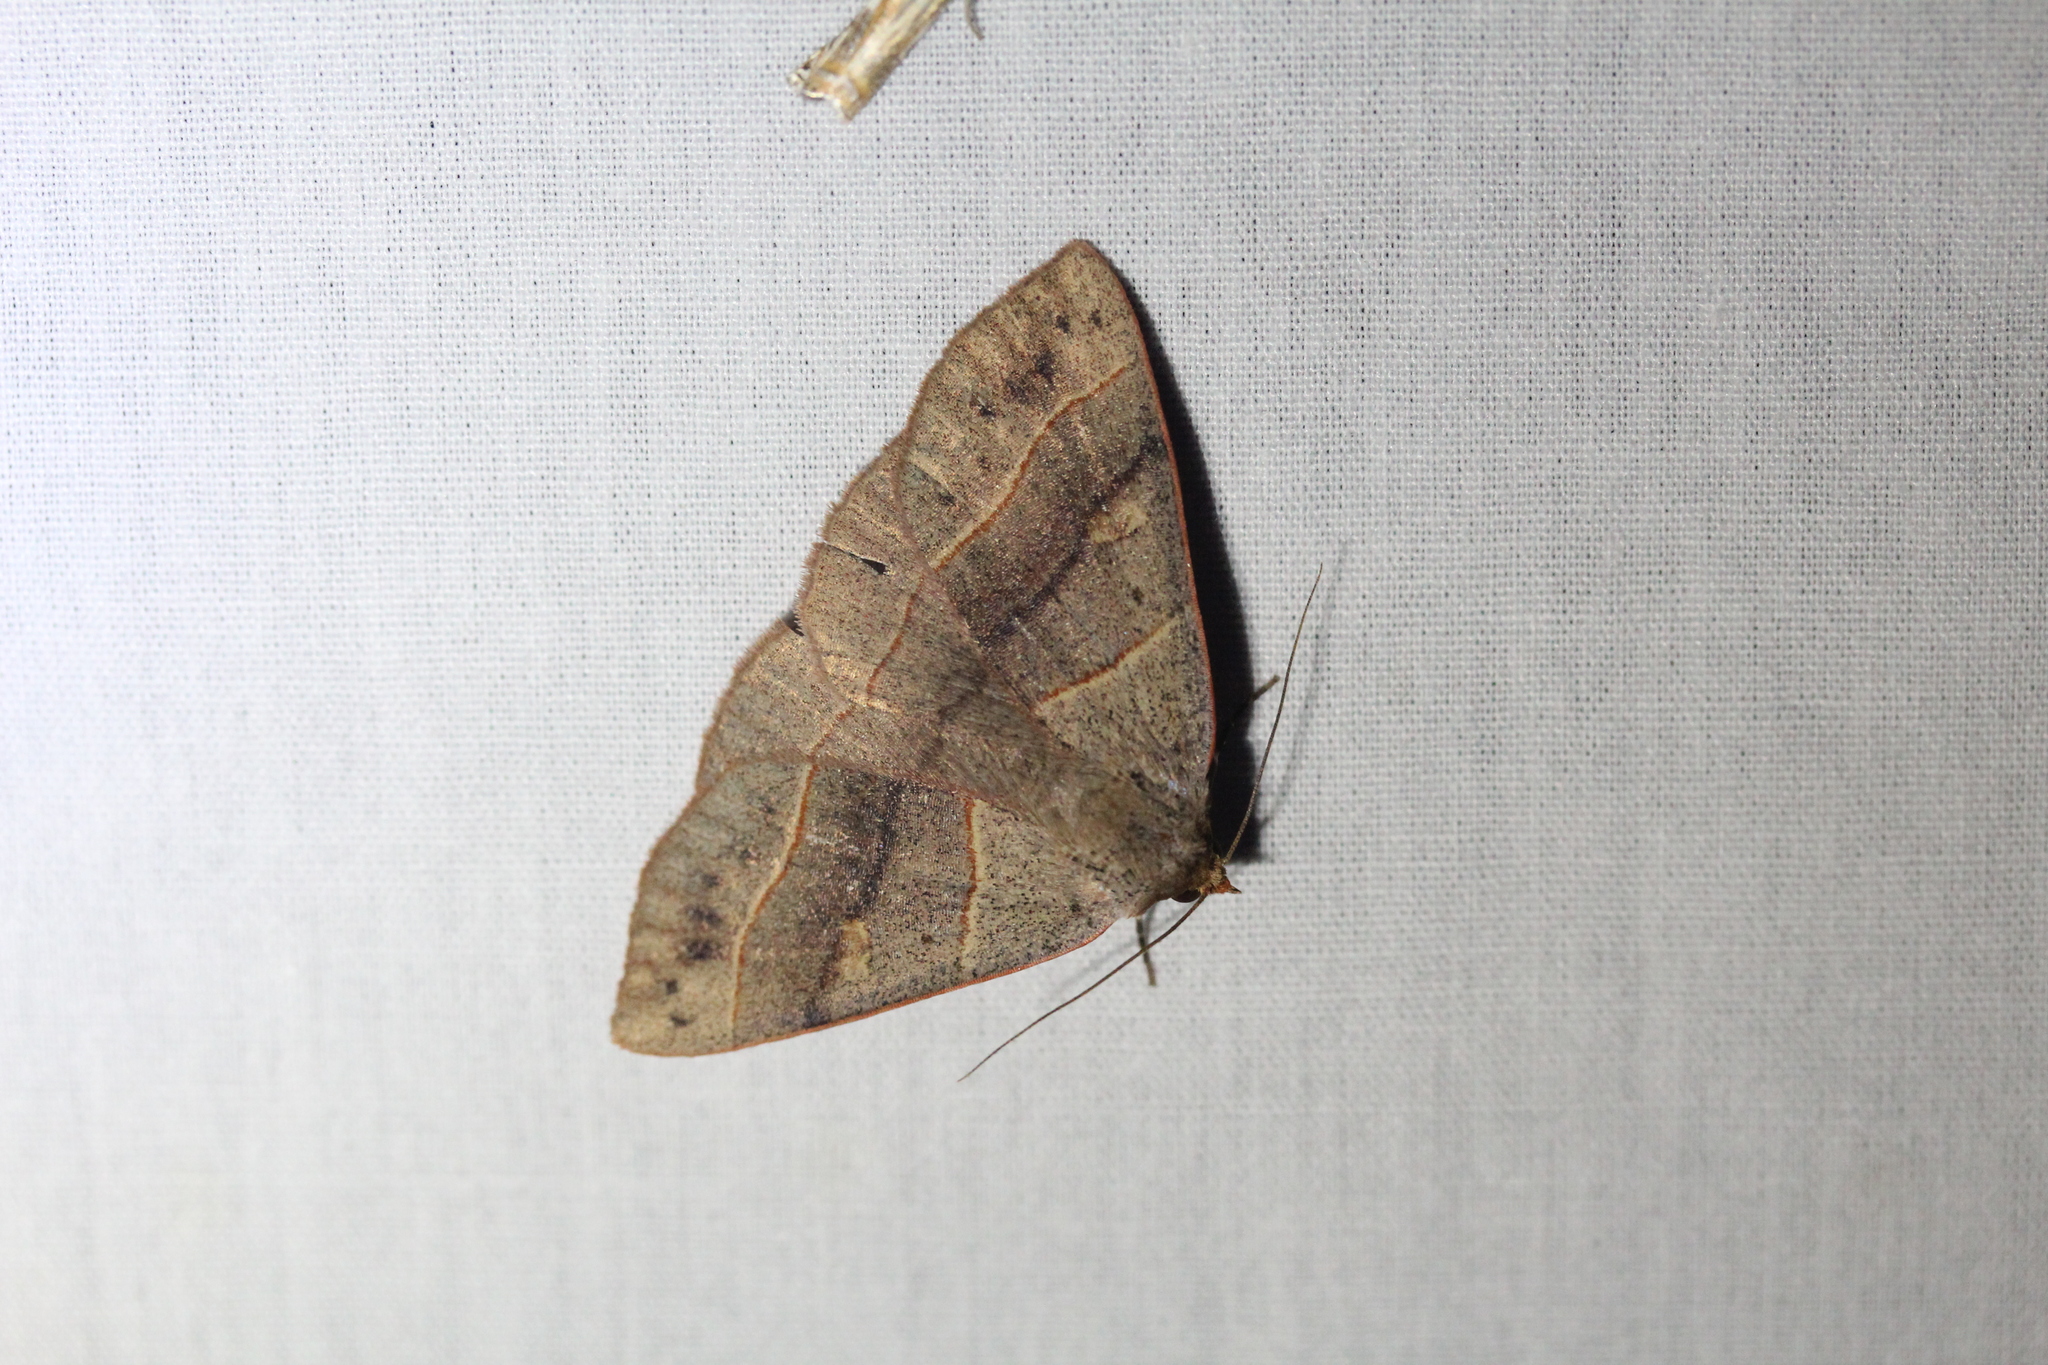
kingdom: Animalia
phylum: Arthropoda
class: Insecta
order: Lepidoptera
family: Erebidae
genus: Panopoda
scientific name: Panopoda rufimargo
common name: Red-lined panopoda moth
